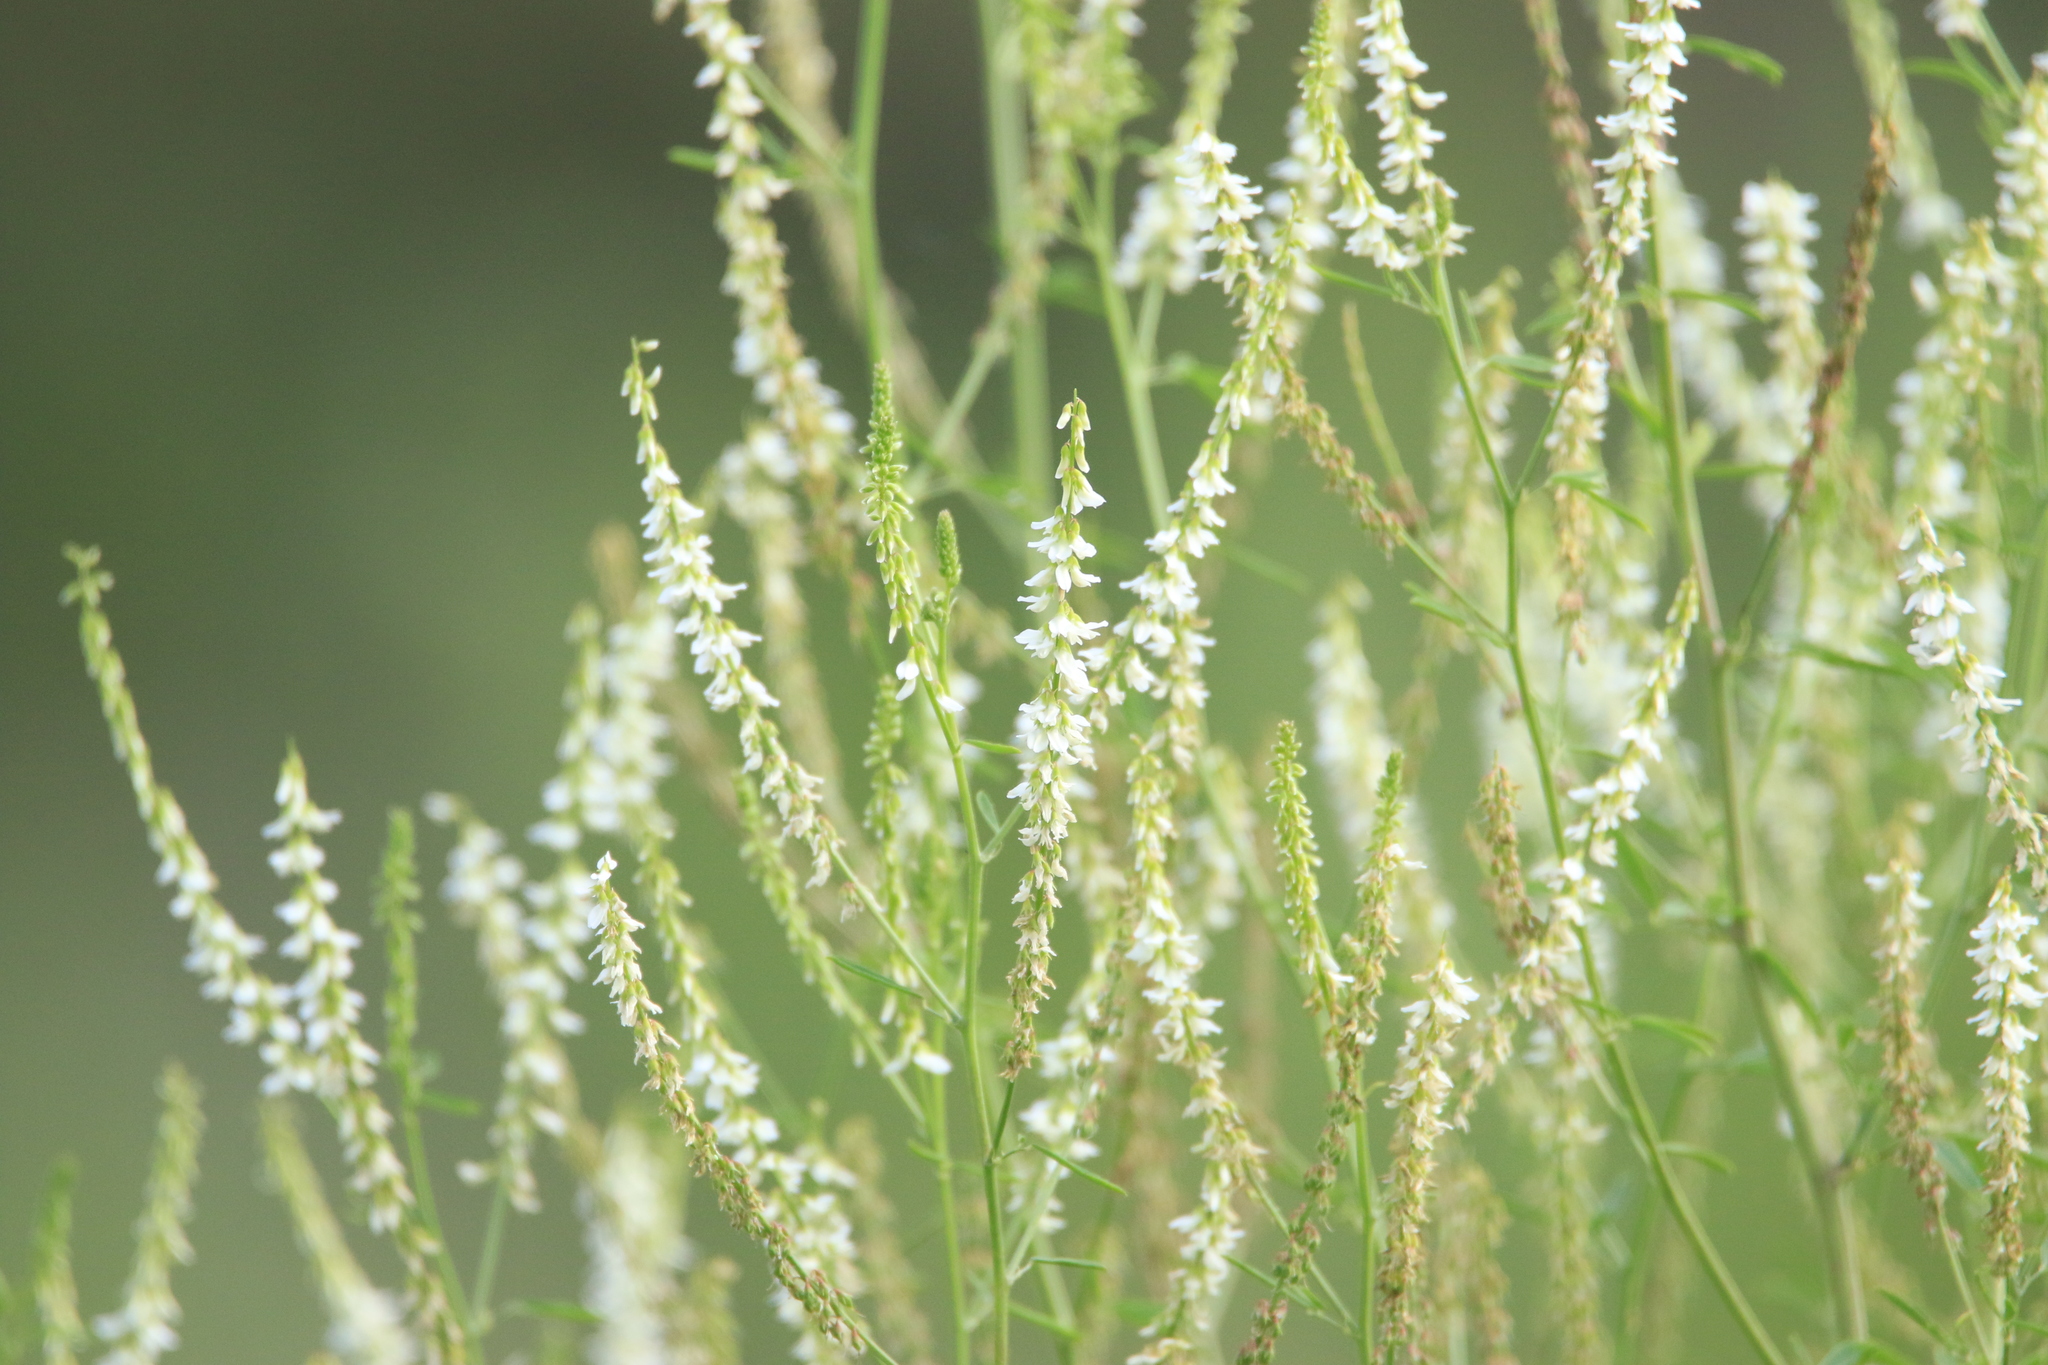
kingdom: Plantae
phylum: Tracheophyta
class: Magnoliopsida
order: Fabales
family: Fabaceae
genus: Melilotus
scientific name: Melilotus albus
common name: White melilot
